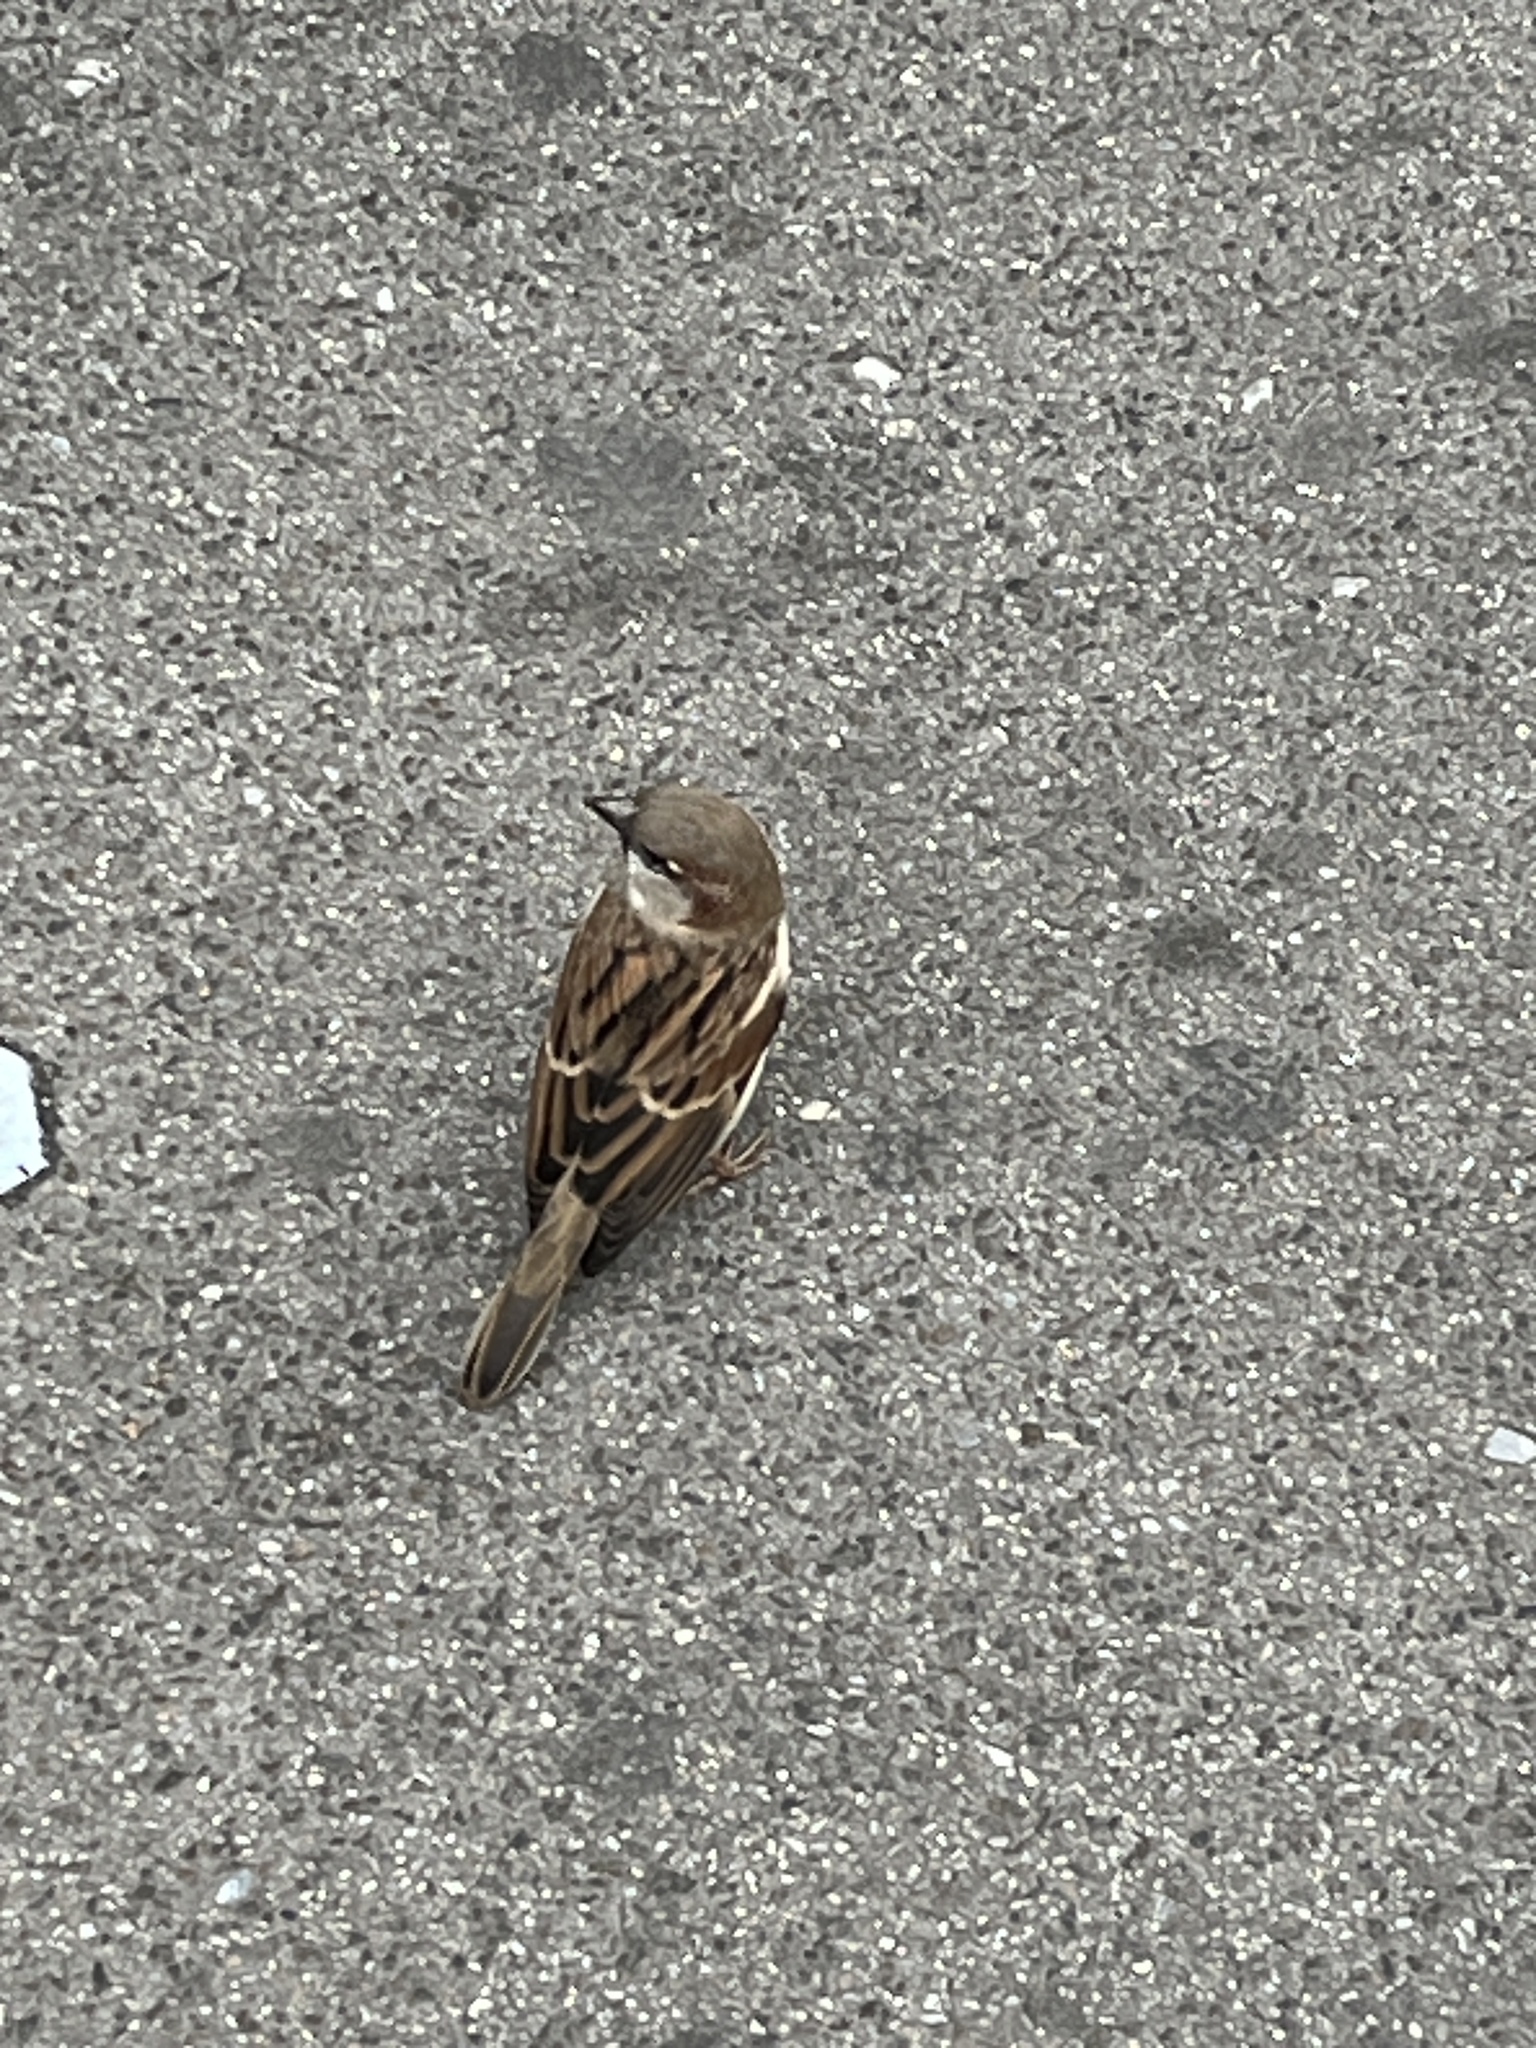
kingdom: Animalia
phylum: Chordata
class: Aves
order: Passeriformes
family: Passeridae
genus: Passer
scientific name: Passer domesticus
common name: House sparrow
